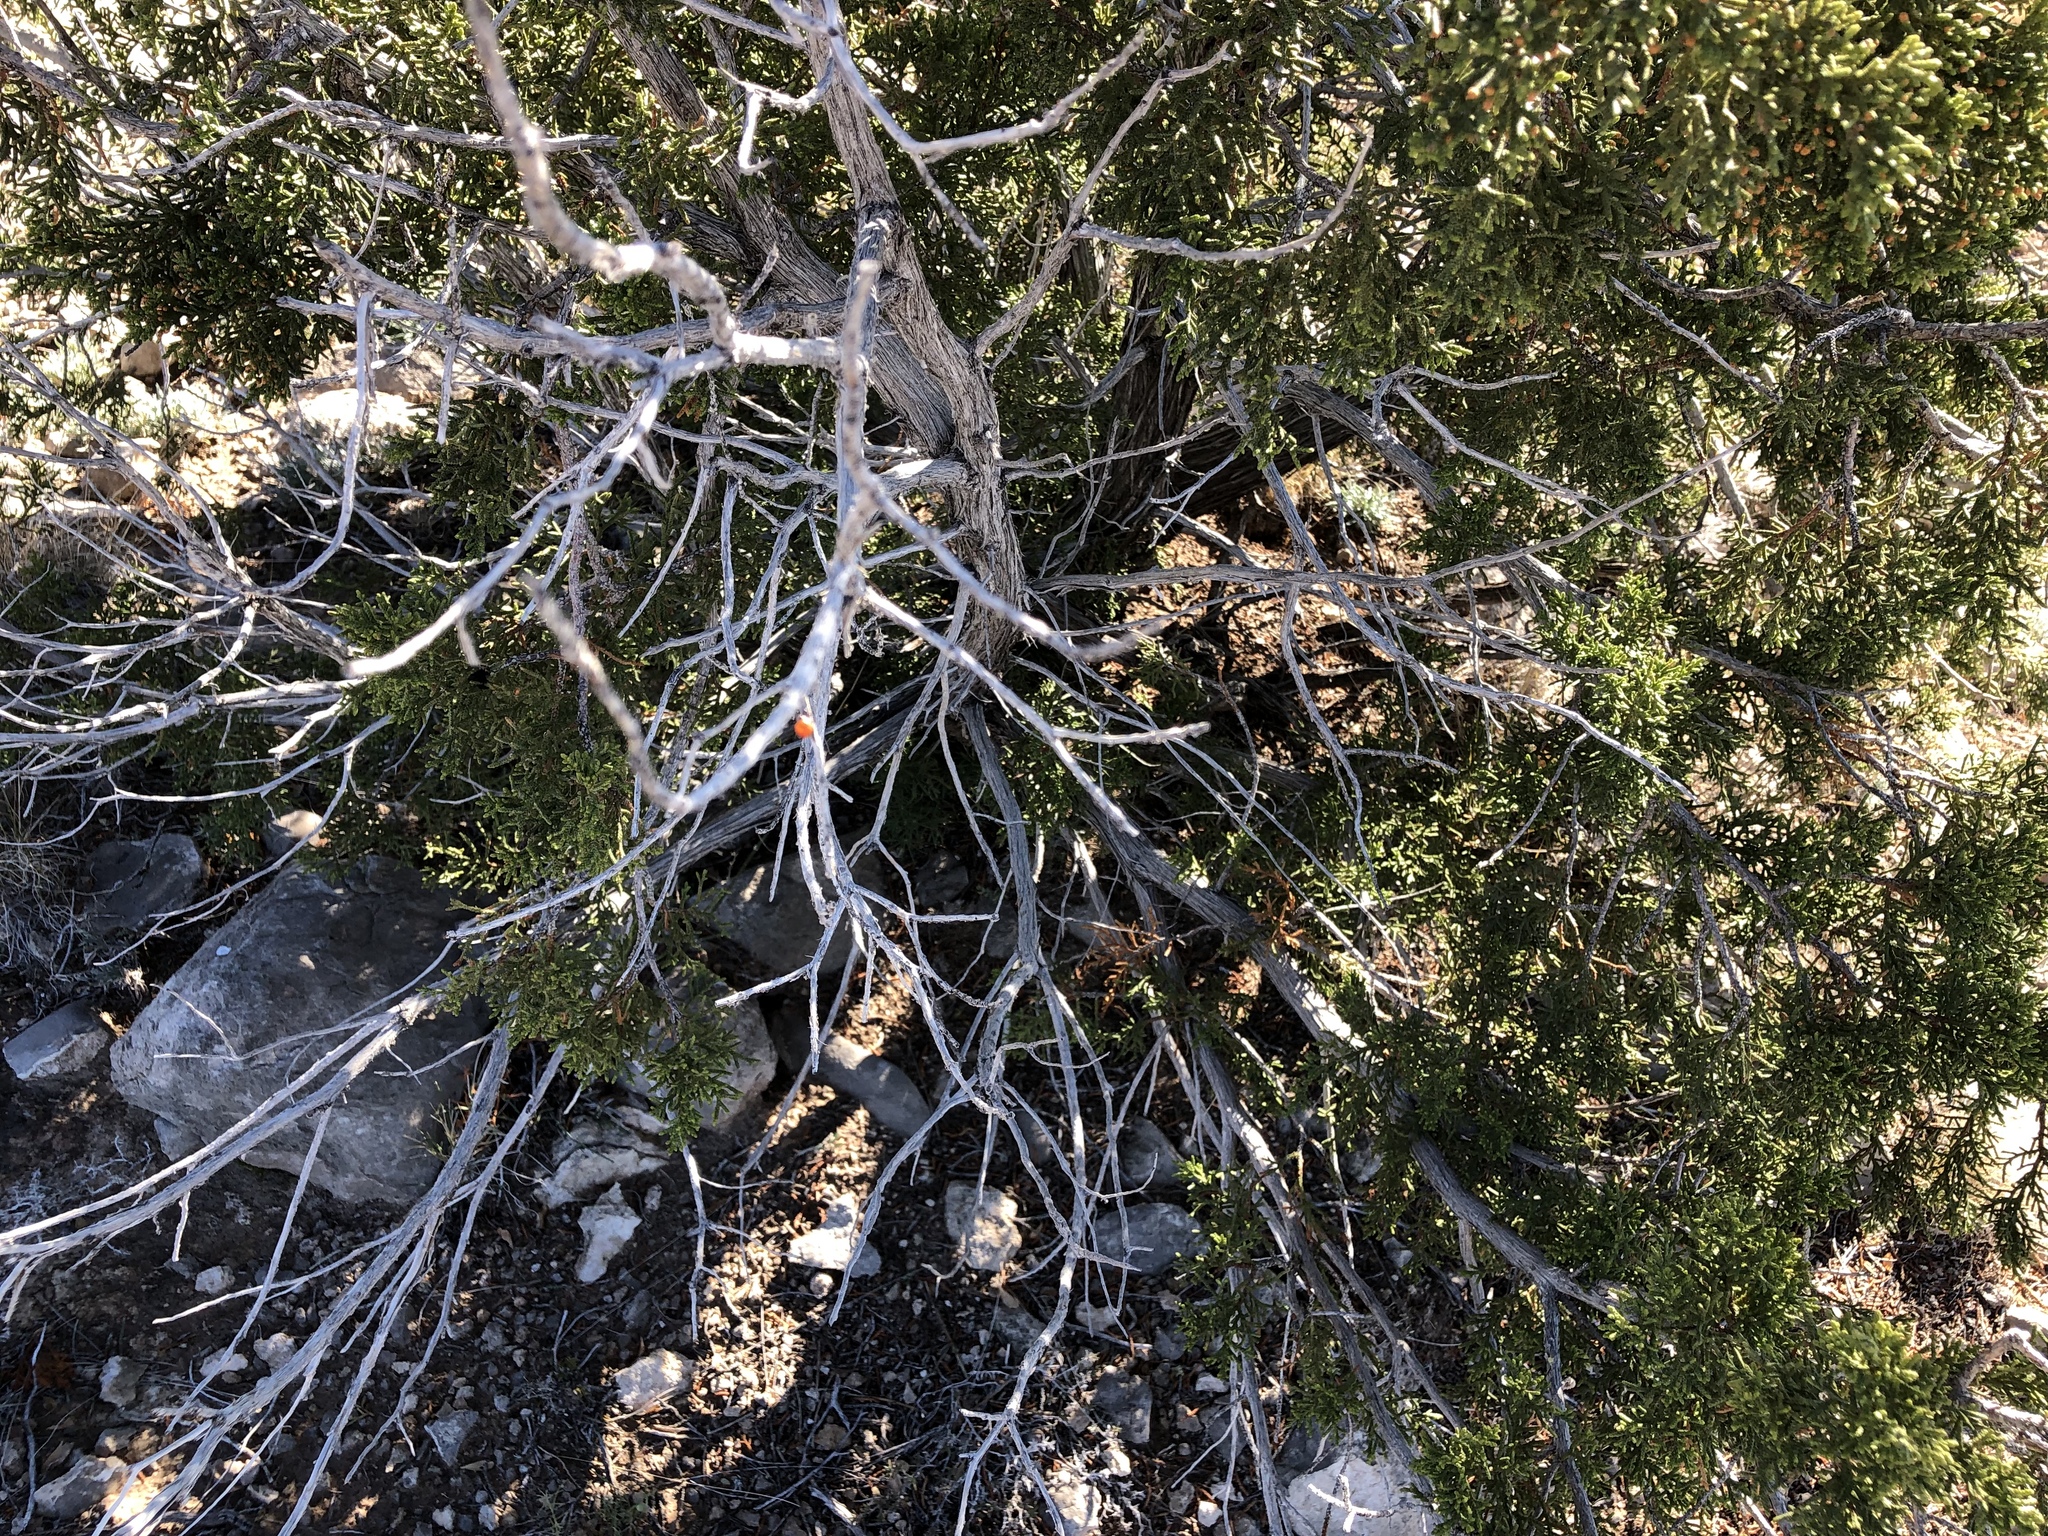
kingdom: Plantae
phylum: Tracheophyta
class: Pinopsida
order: Pinales
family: Cupressaceae
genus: Juniperus
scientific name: Juniperus monosperma
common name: One-seed juniper
